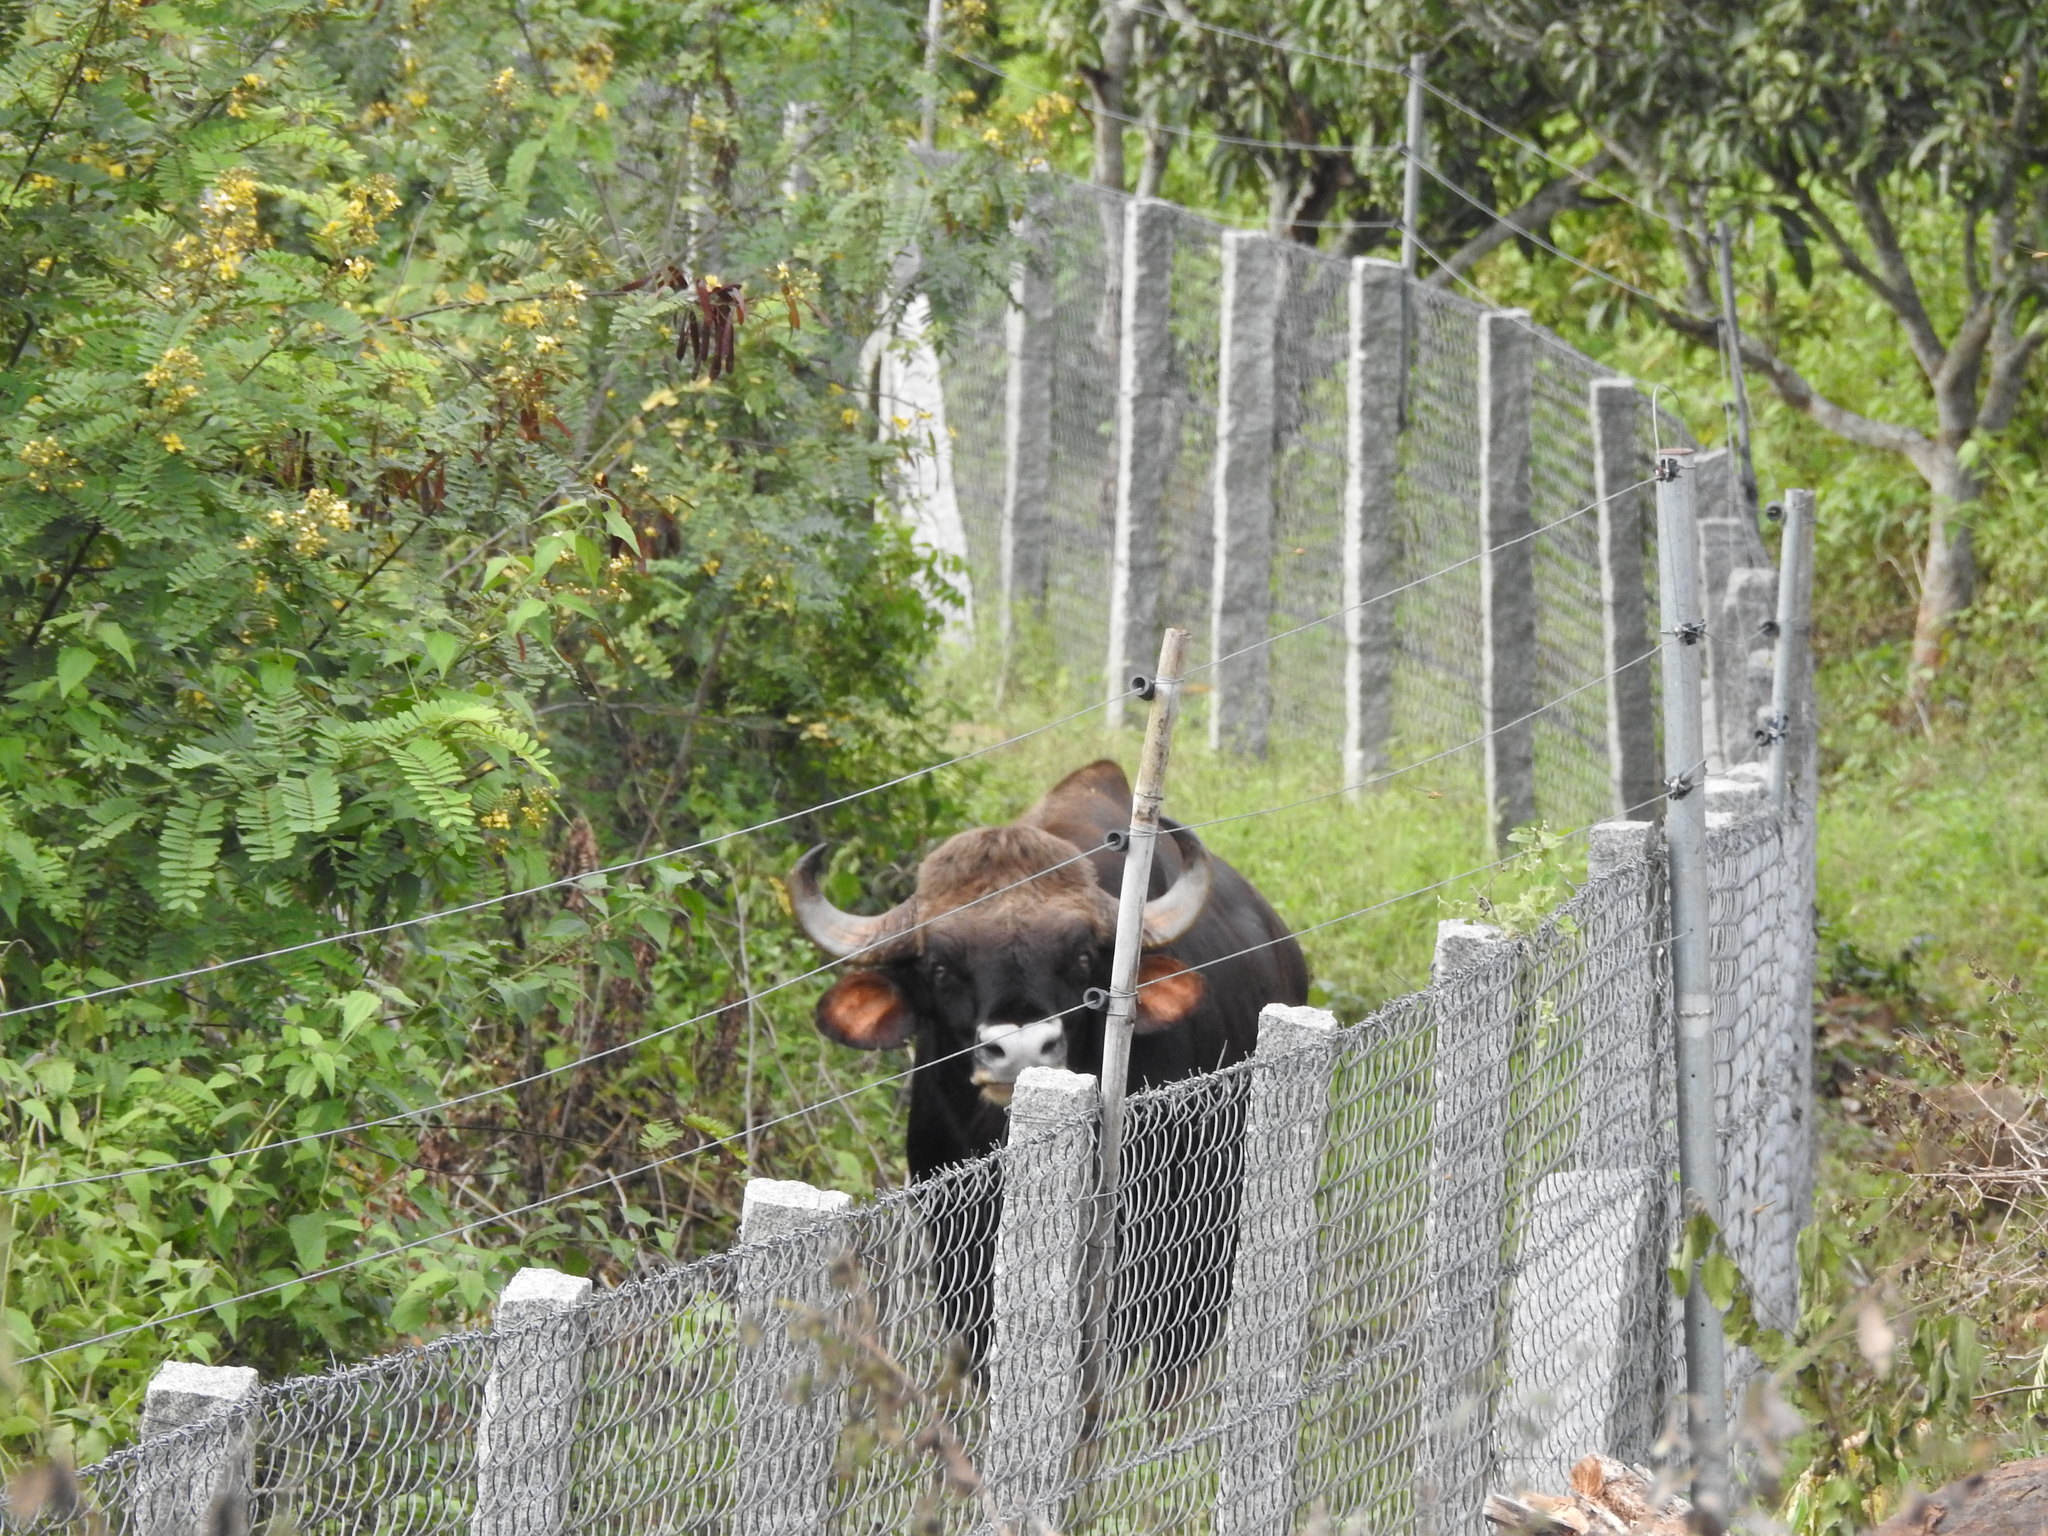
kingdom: Animalia
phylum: Chordata
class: Mammalia
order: Artiodactyla
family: Bovidae
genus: Bos
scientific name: Bos frontalis
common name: Gaur
